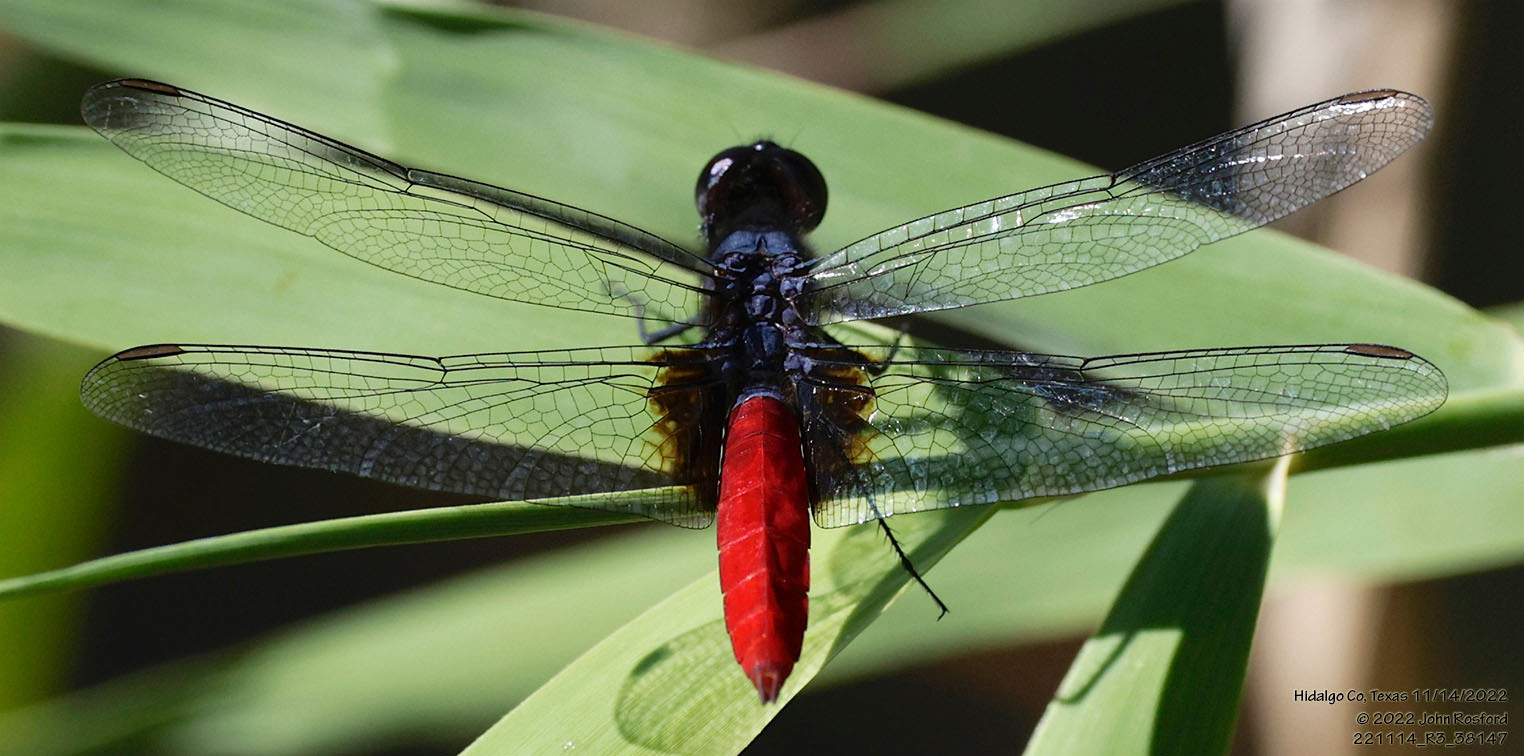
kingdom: Animalia
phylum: Arthropoda
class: Insecta
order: Odonata
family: Libellulidae
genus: Planiplax
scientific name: Planiplax sanguiniventris
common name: Mexican scarlet-tail
